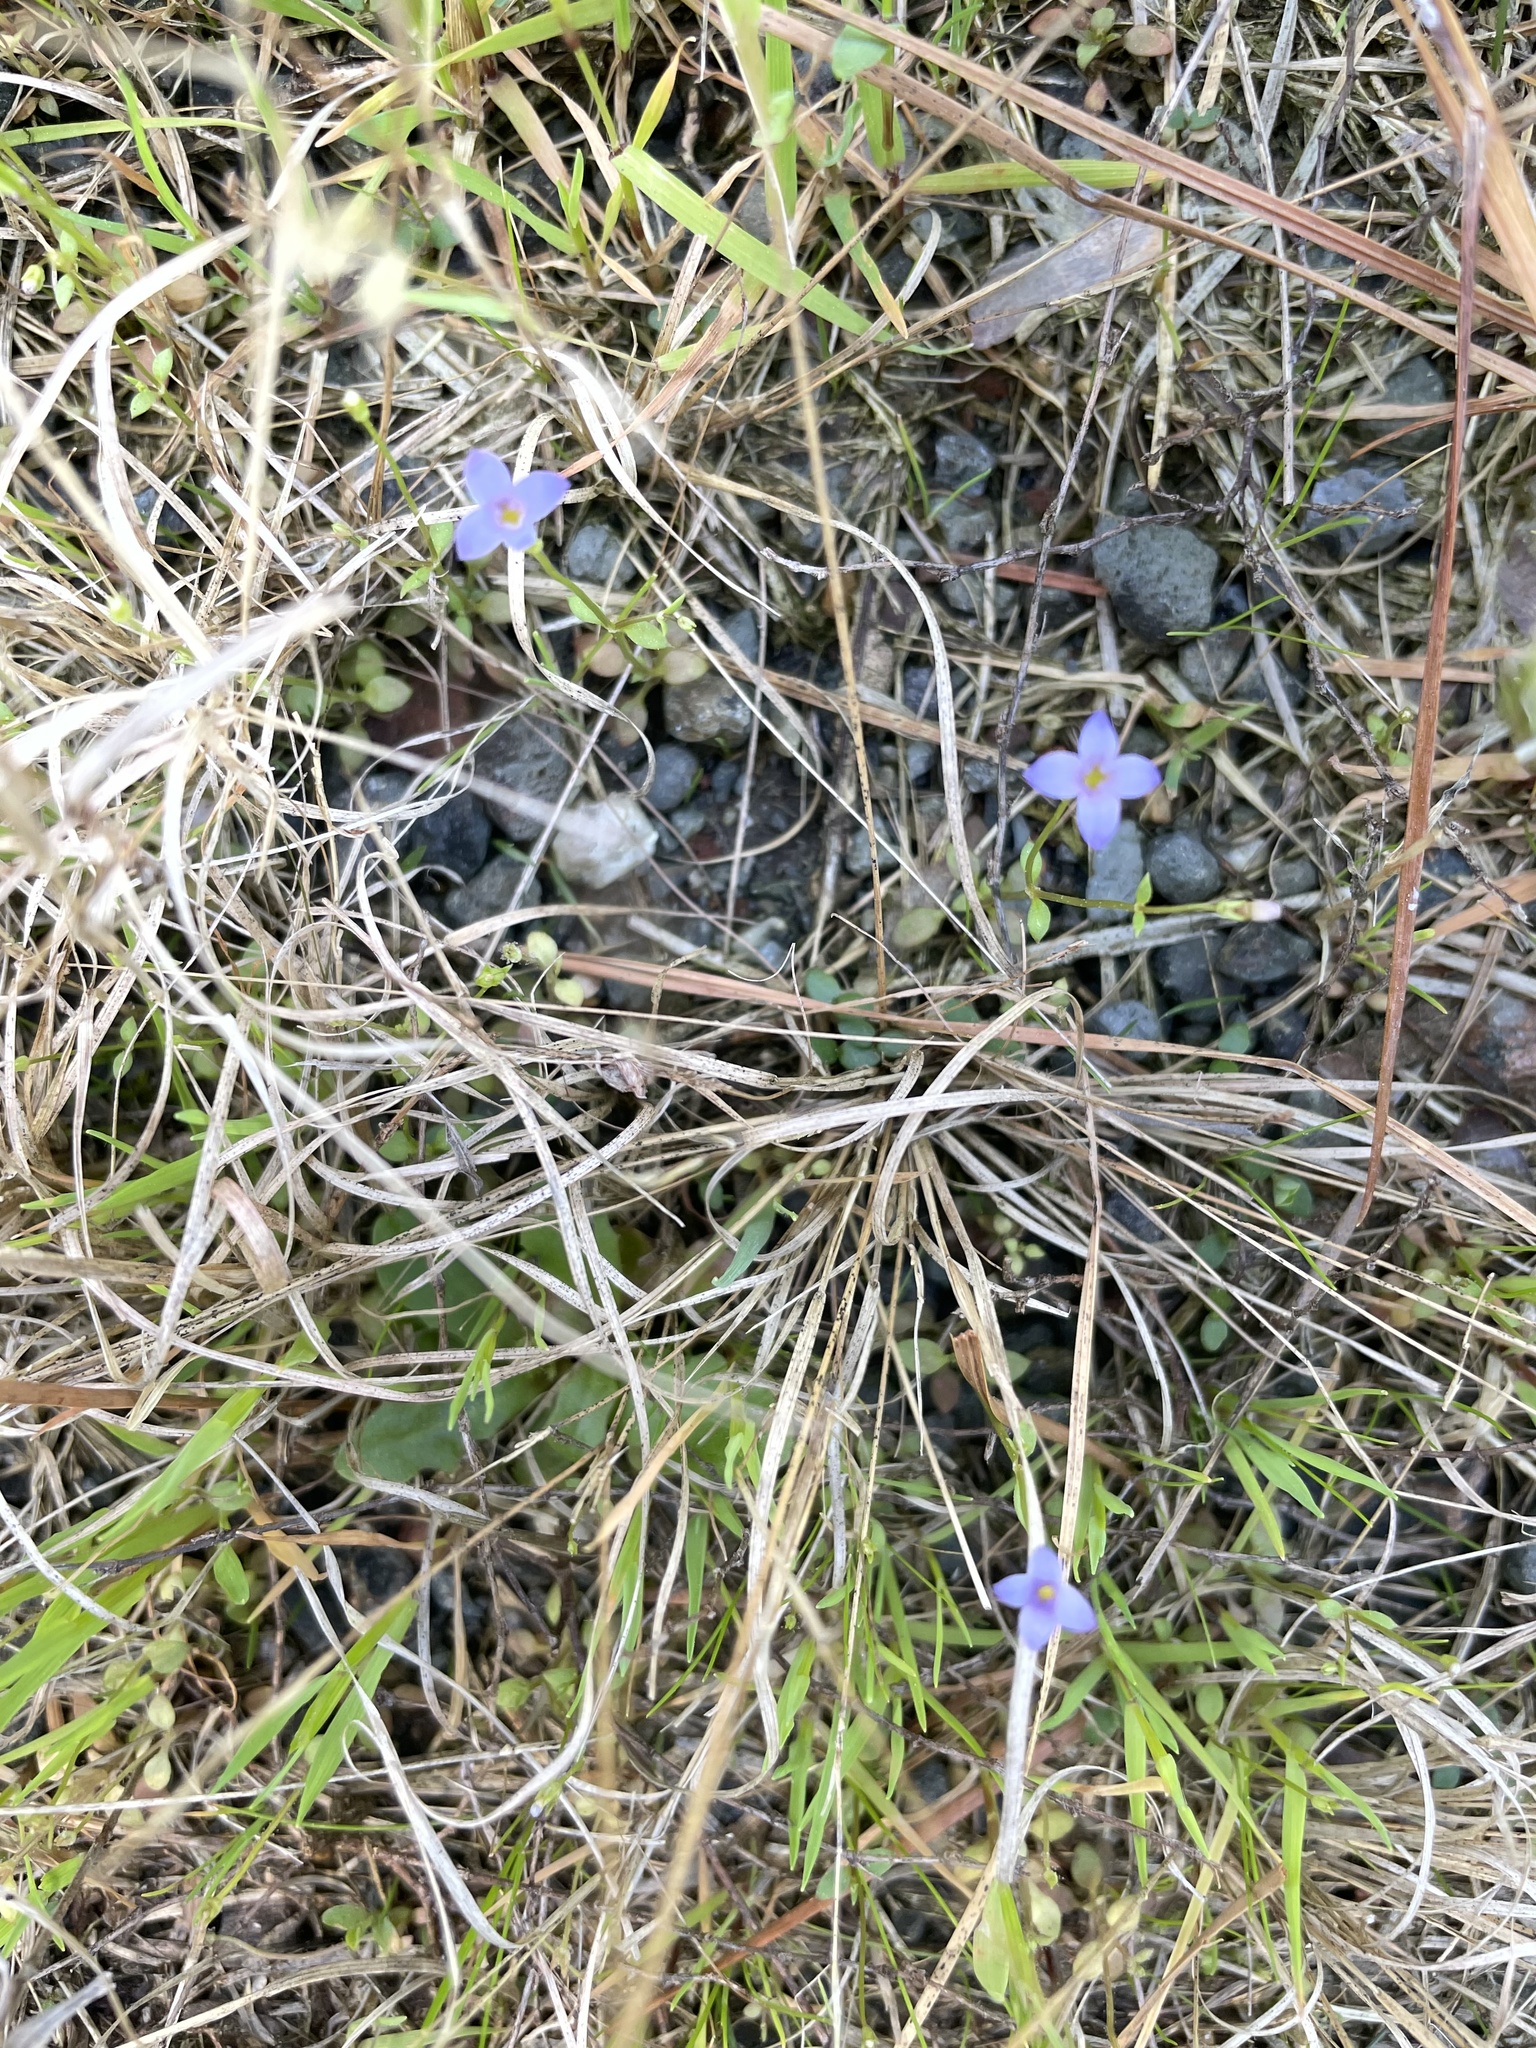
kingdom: Plantae
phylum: Tracheophyta
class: Magnoliopsida
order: Gentianales
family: Rubiaceae
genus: Houstonia
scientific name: Houstonia pusilla
